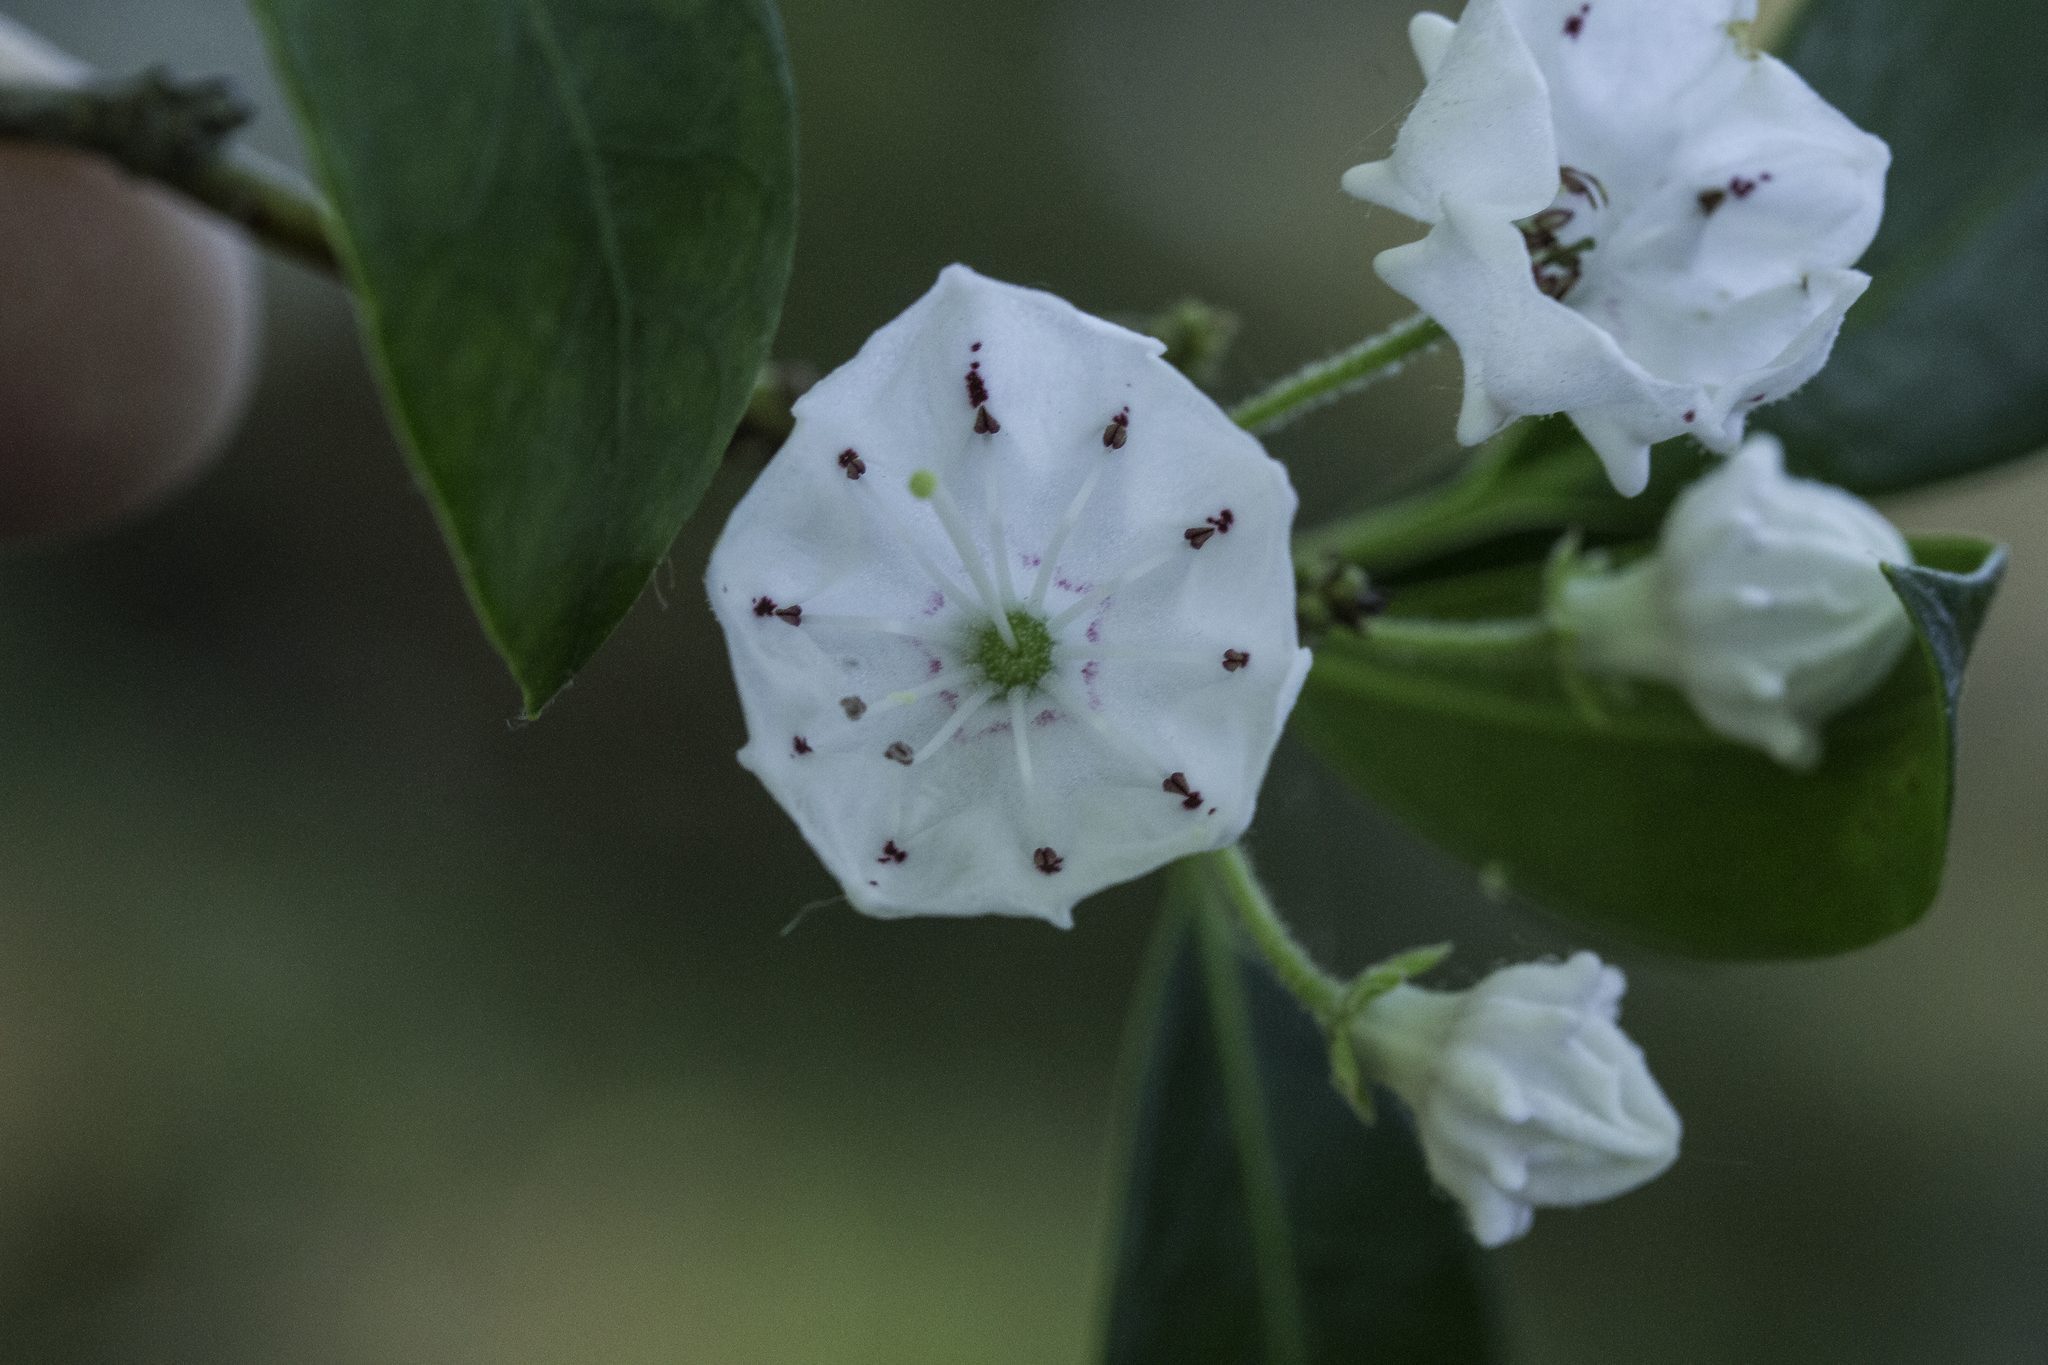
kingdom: Plantae
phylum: Tracheophyta
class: Magnoliopsida
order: Ericales
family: Ericaceae
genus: Kalmia
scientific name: Kalmia latifolia
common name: Mountain-laurel
